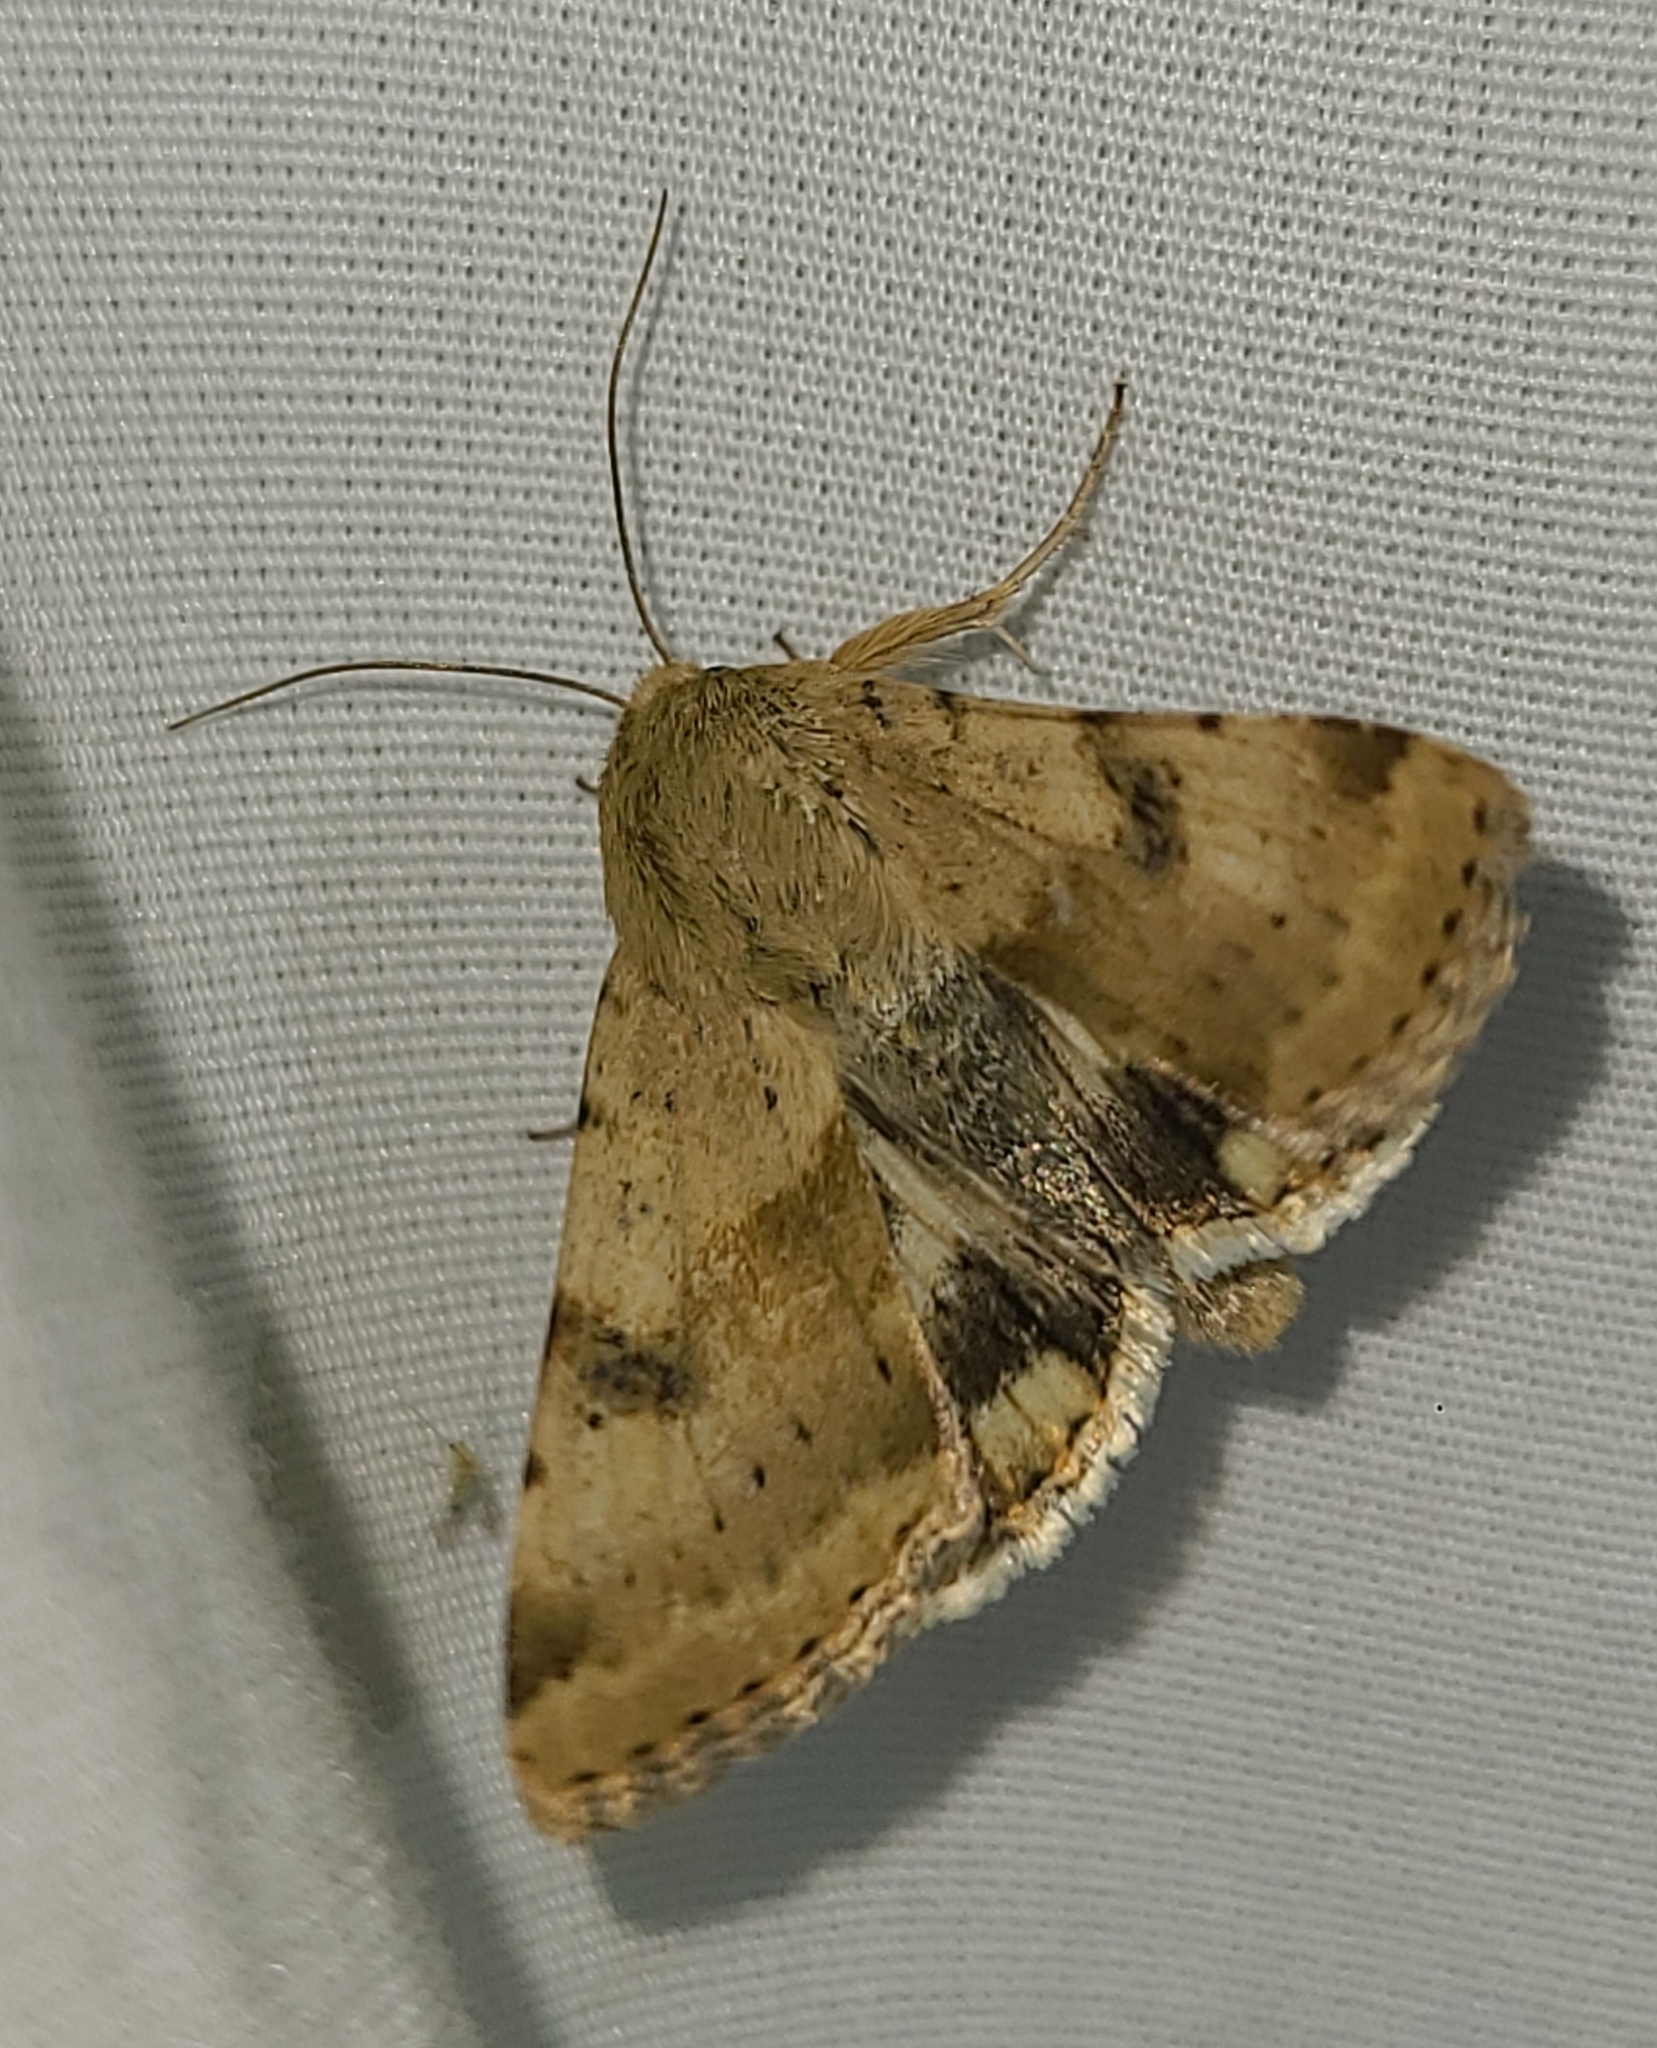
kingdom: Animalia
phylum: Arthropoda
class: Insecta
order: Lepidoptera
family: Noctuidae
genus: Heliothis
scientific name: Heliothis phloxiphaga
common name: Darker spotted straw moth
